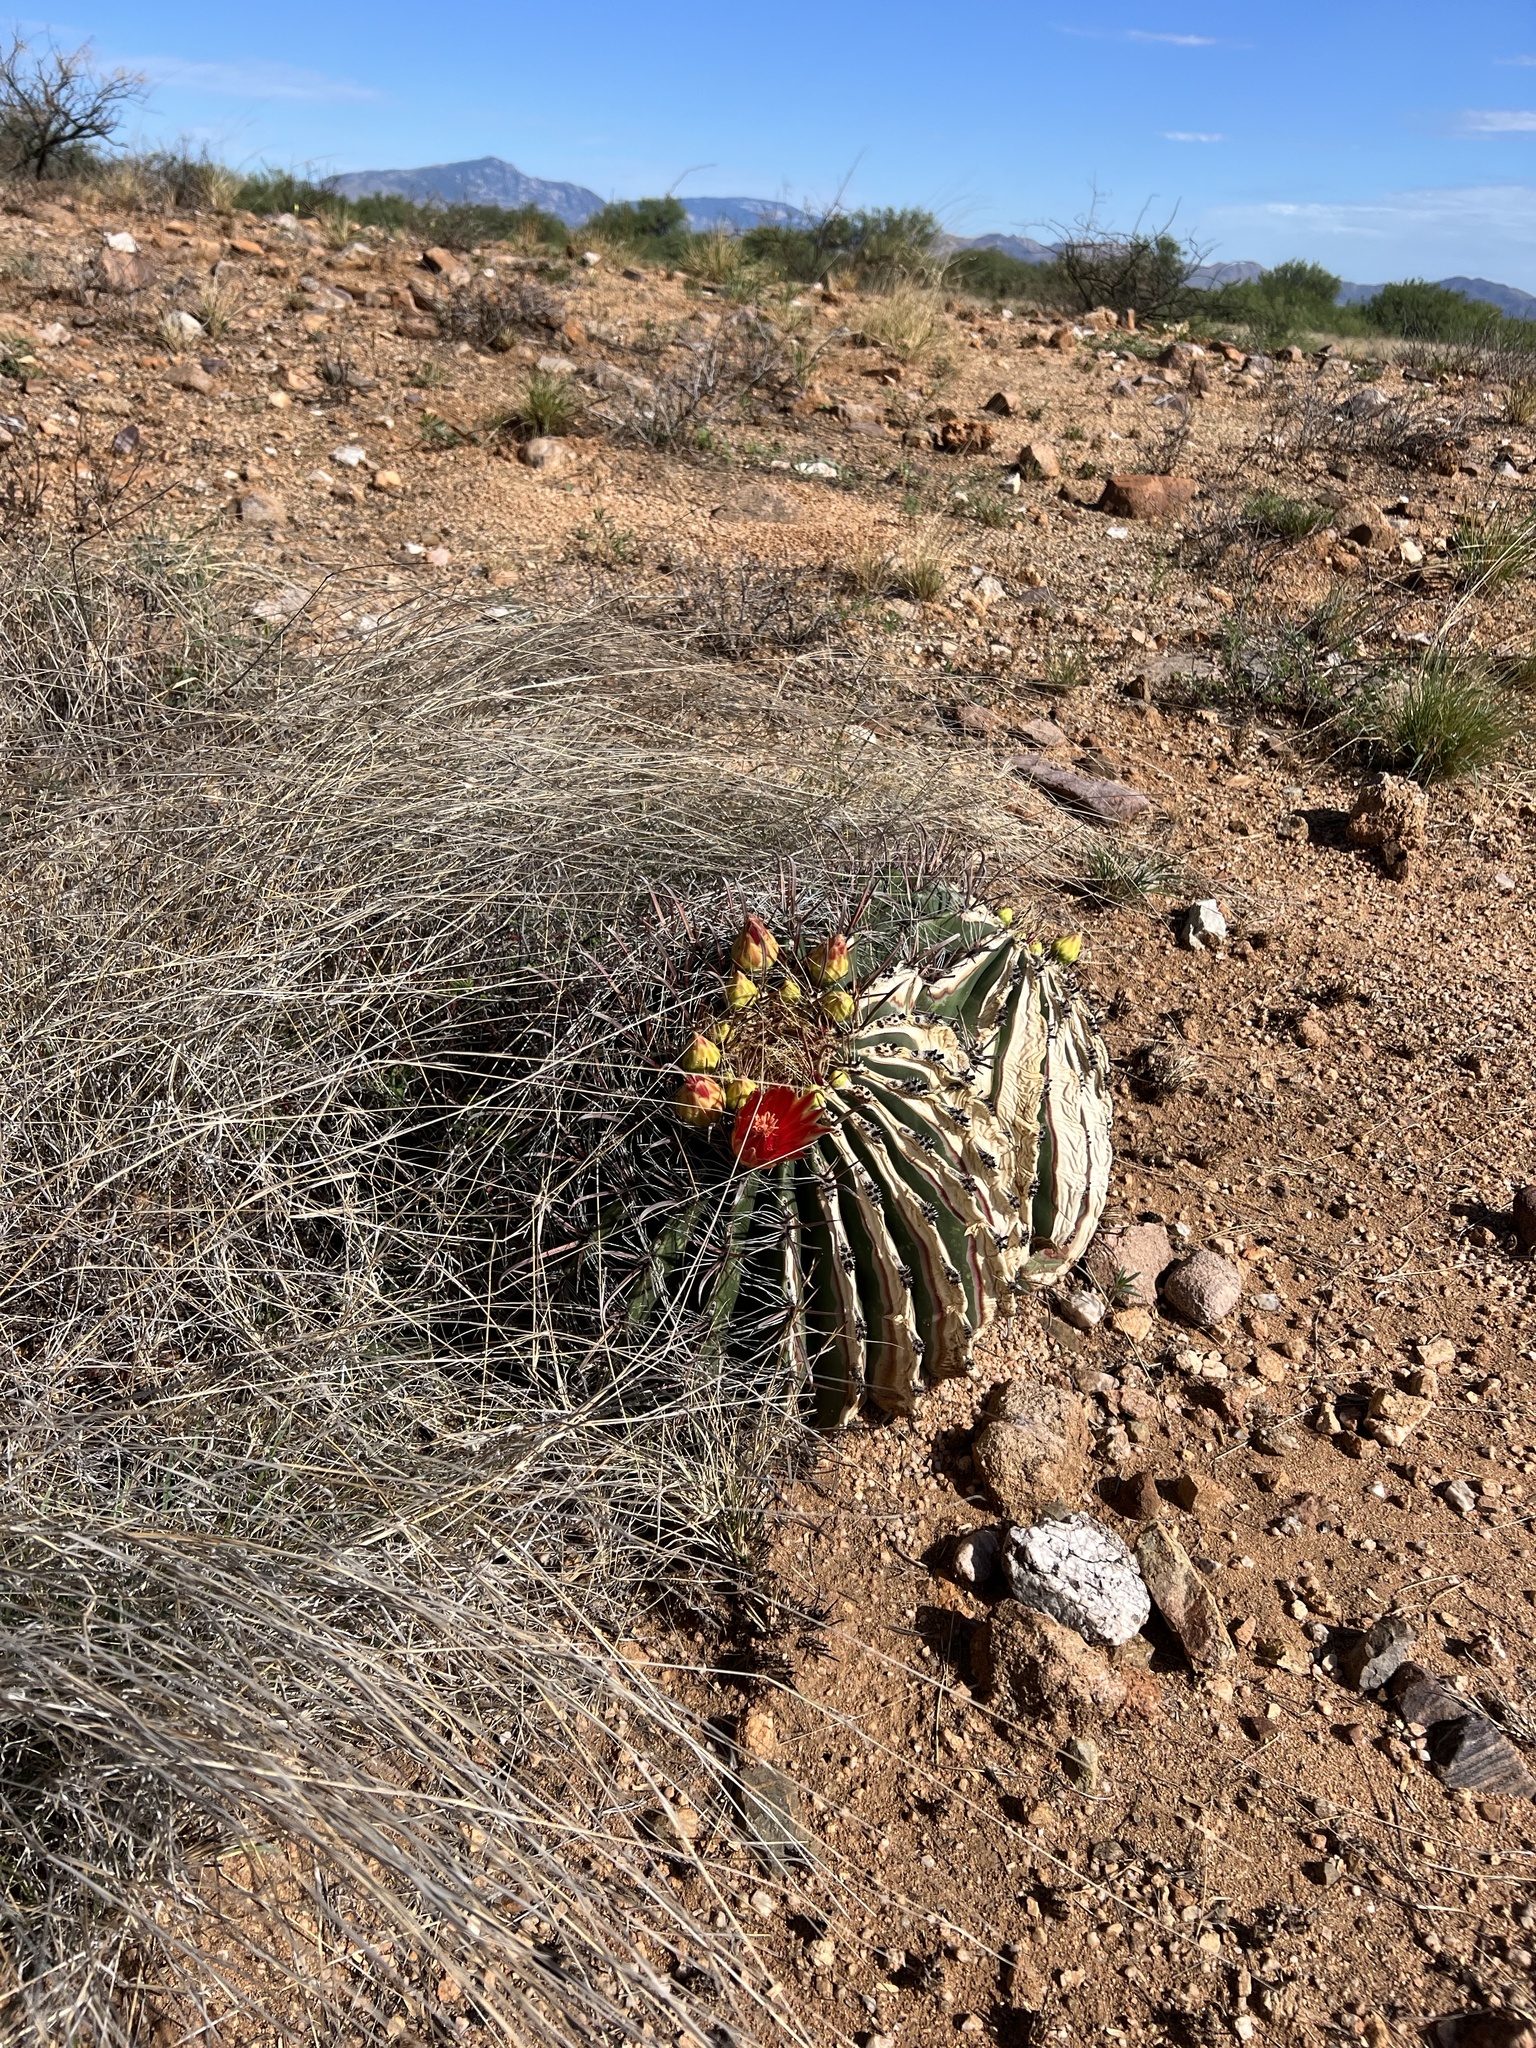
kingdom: Plantae
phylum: Tracheophyta
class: Magnoliopsida
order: Caryophyllales
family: Cactaceae
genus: Ferocactus
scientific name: Ferocactus wislizeni
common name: Candy barrel cactus
